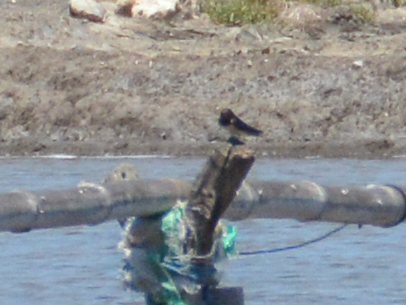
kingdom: Animalia
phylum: Chordata
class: Aves
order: Passeriformes
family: Hirundinidae
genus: Hirundo
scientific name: Hirundo rustica
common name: Barn swallow
